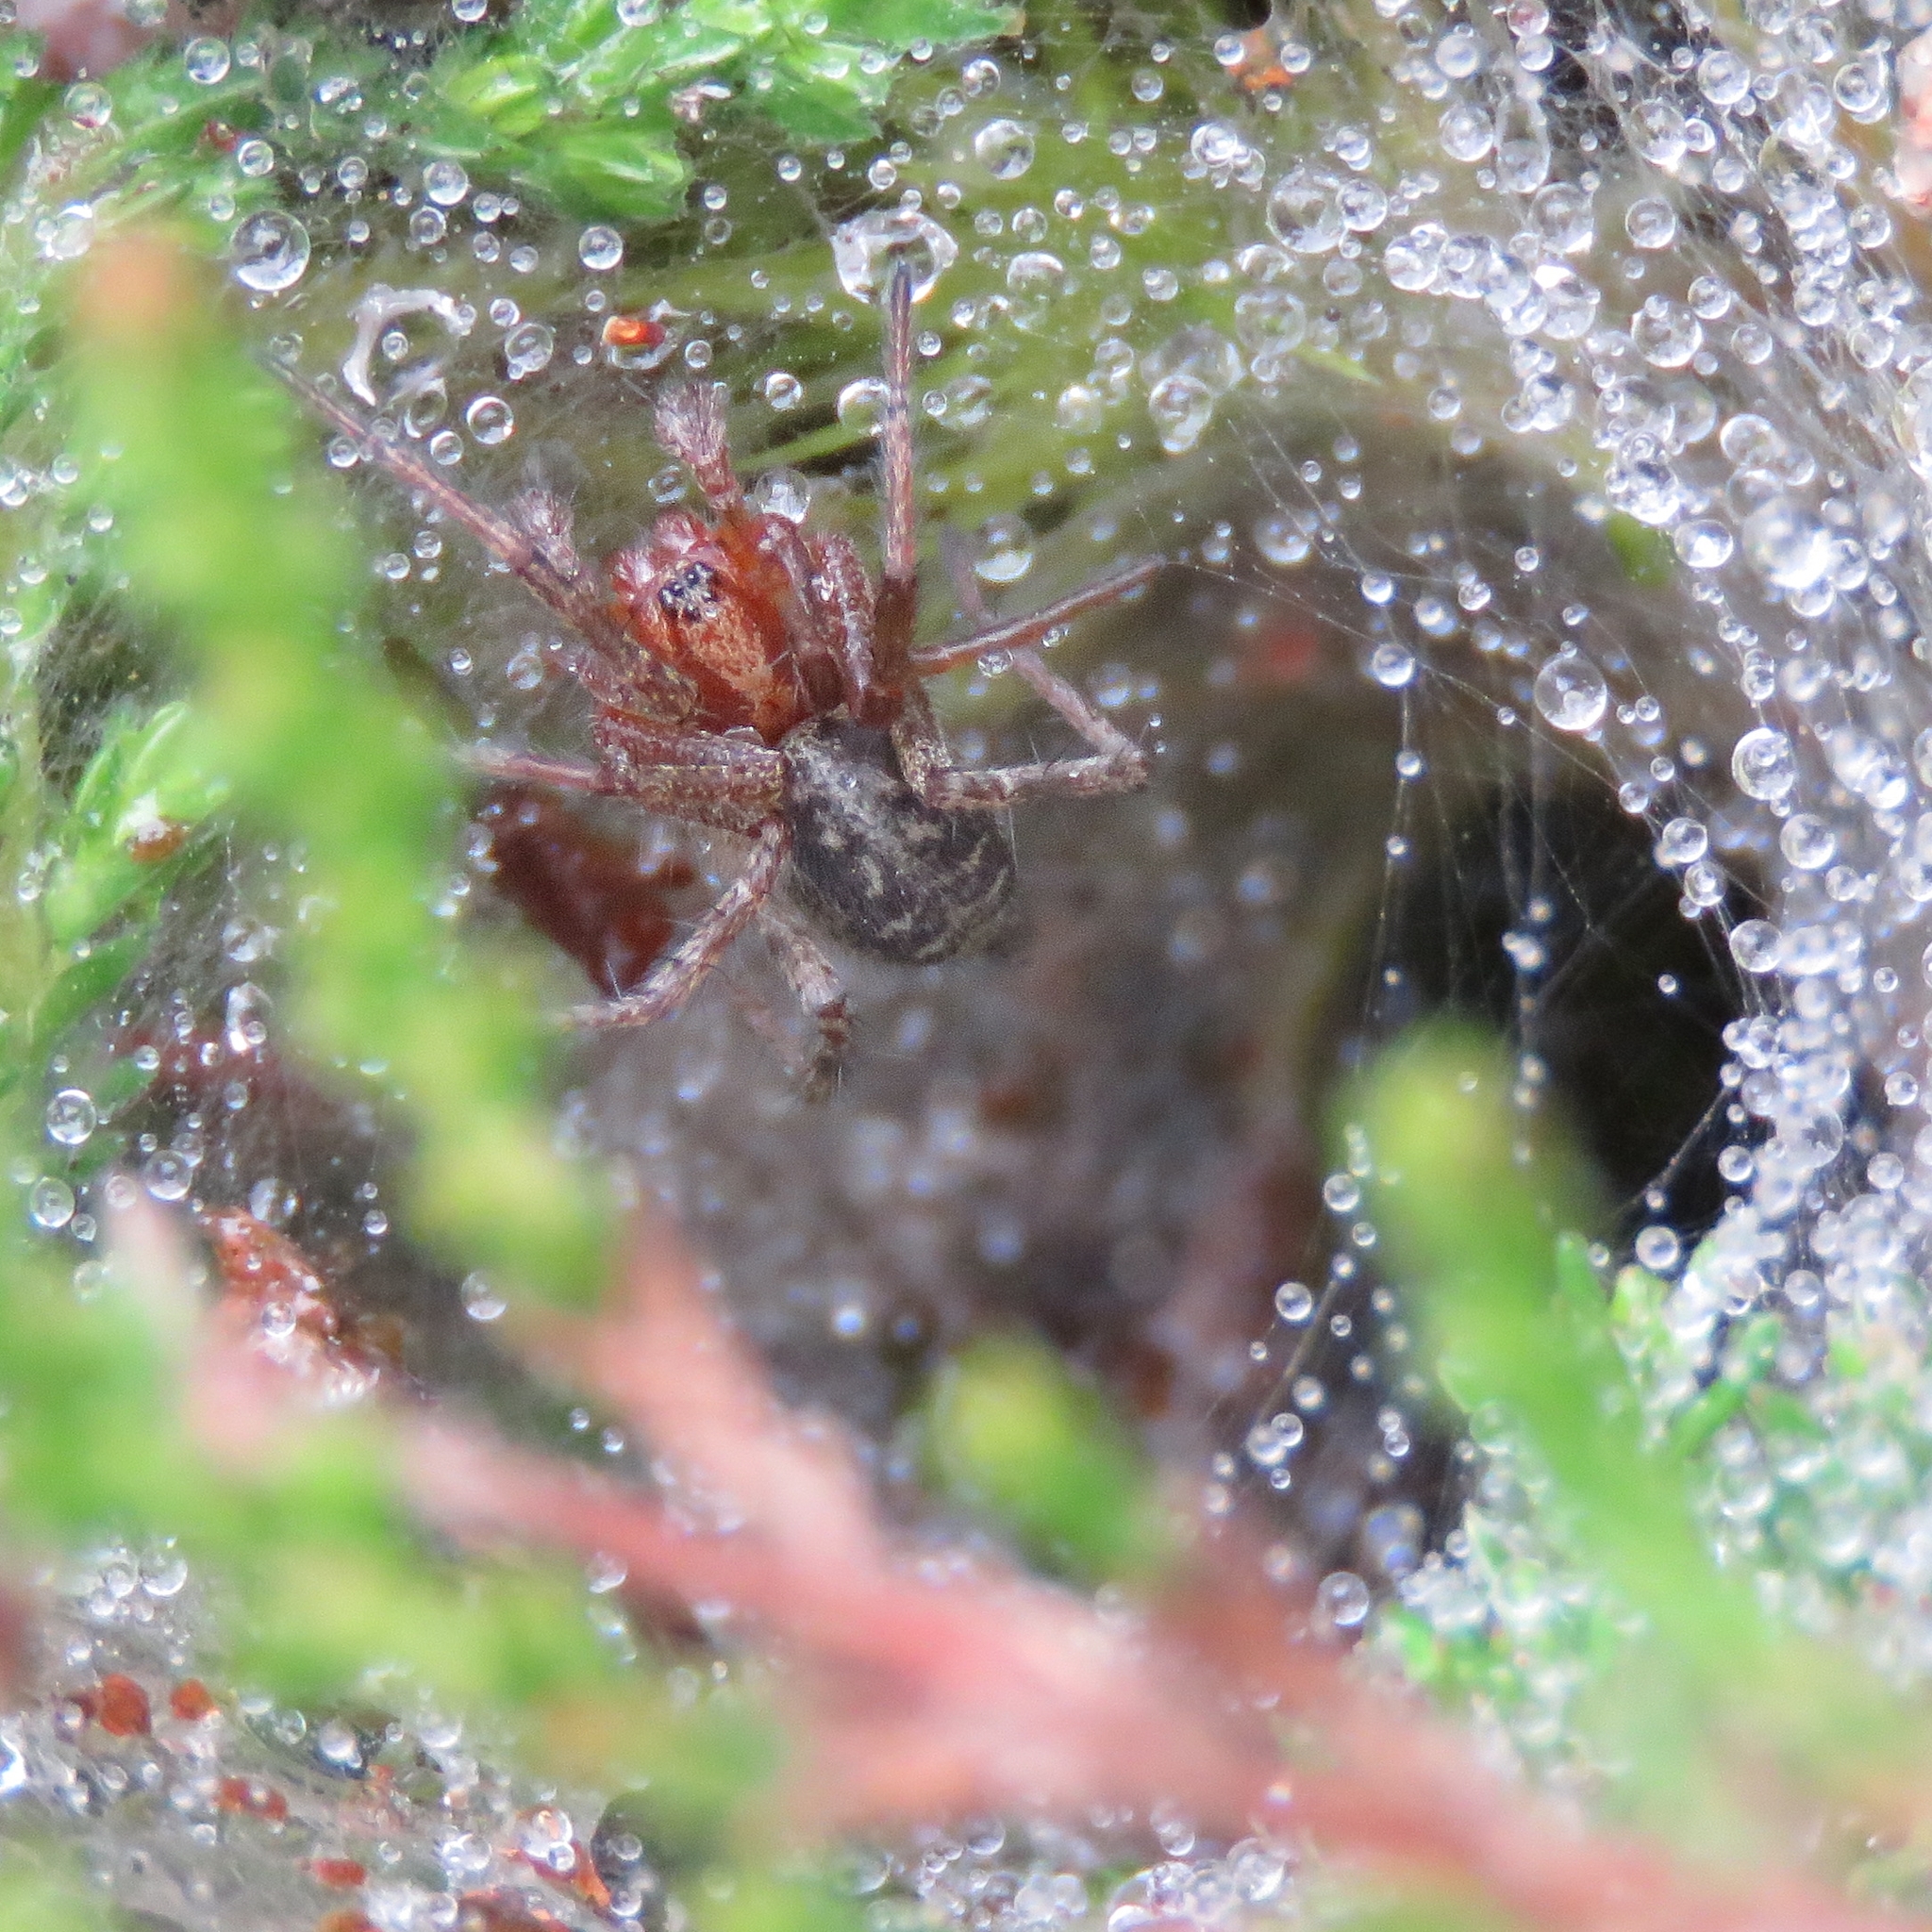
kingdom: Animalia
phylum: Arthropoda
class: Arachnida
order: Araneae
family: Agelenidae
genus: Agelena
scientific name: Agelena labyrinthica
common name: Labyrinth spider
